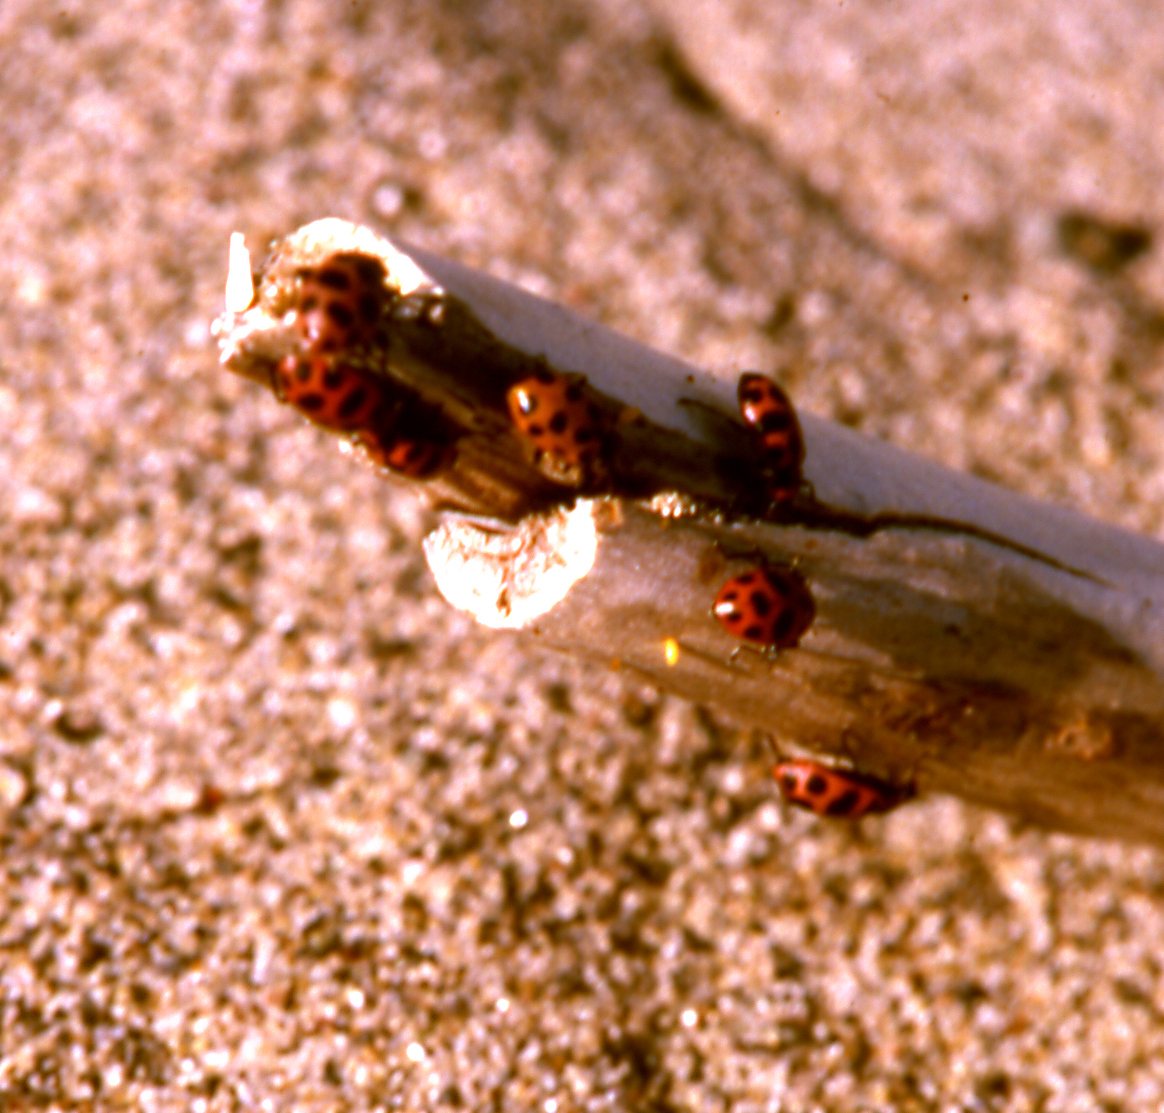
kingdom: Animalia
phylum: Arthropoda
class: Insecta
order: Coleoptera
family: Coccinellidae
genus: Coleomegilla
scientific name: Coleomegilla maculata
